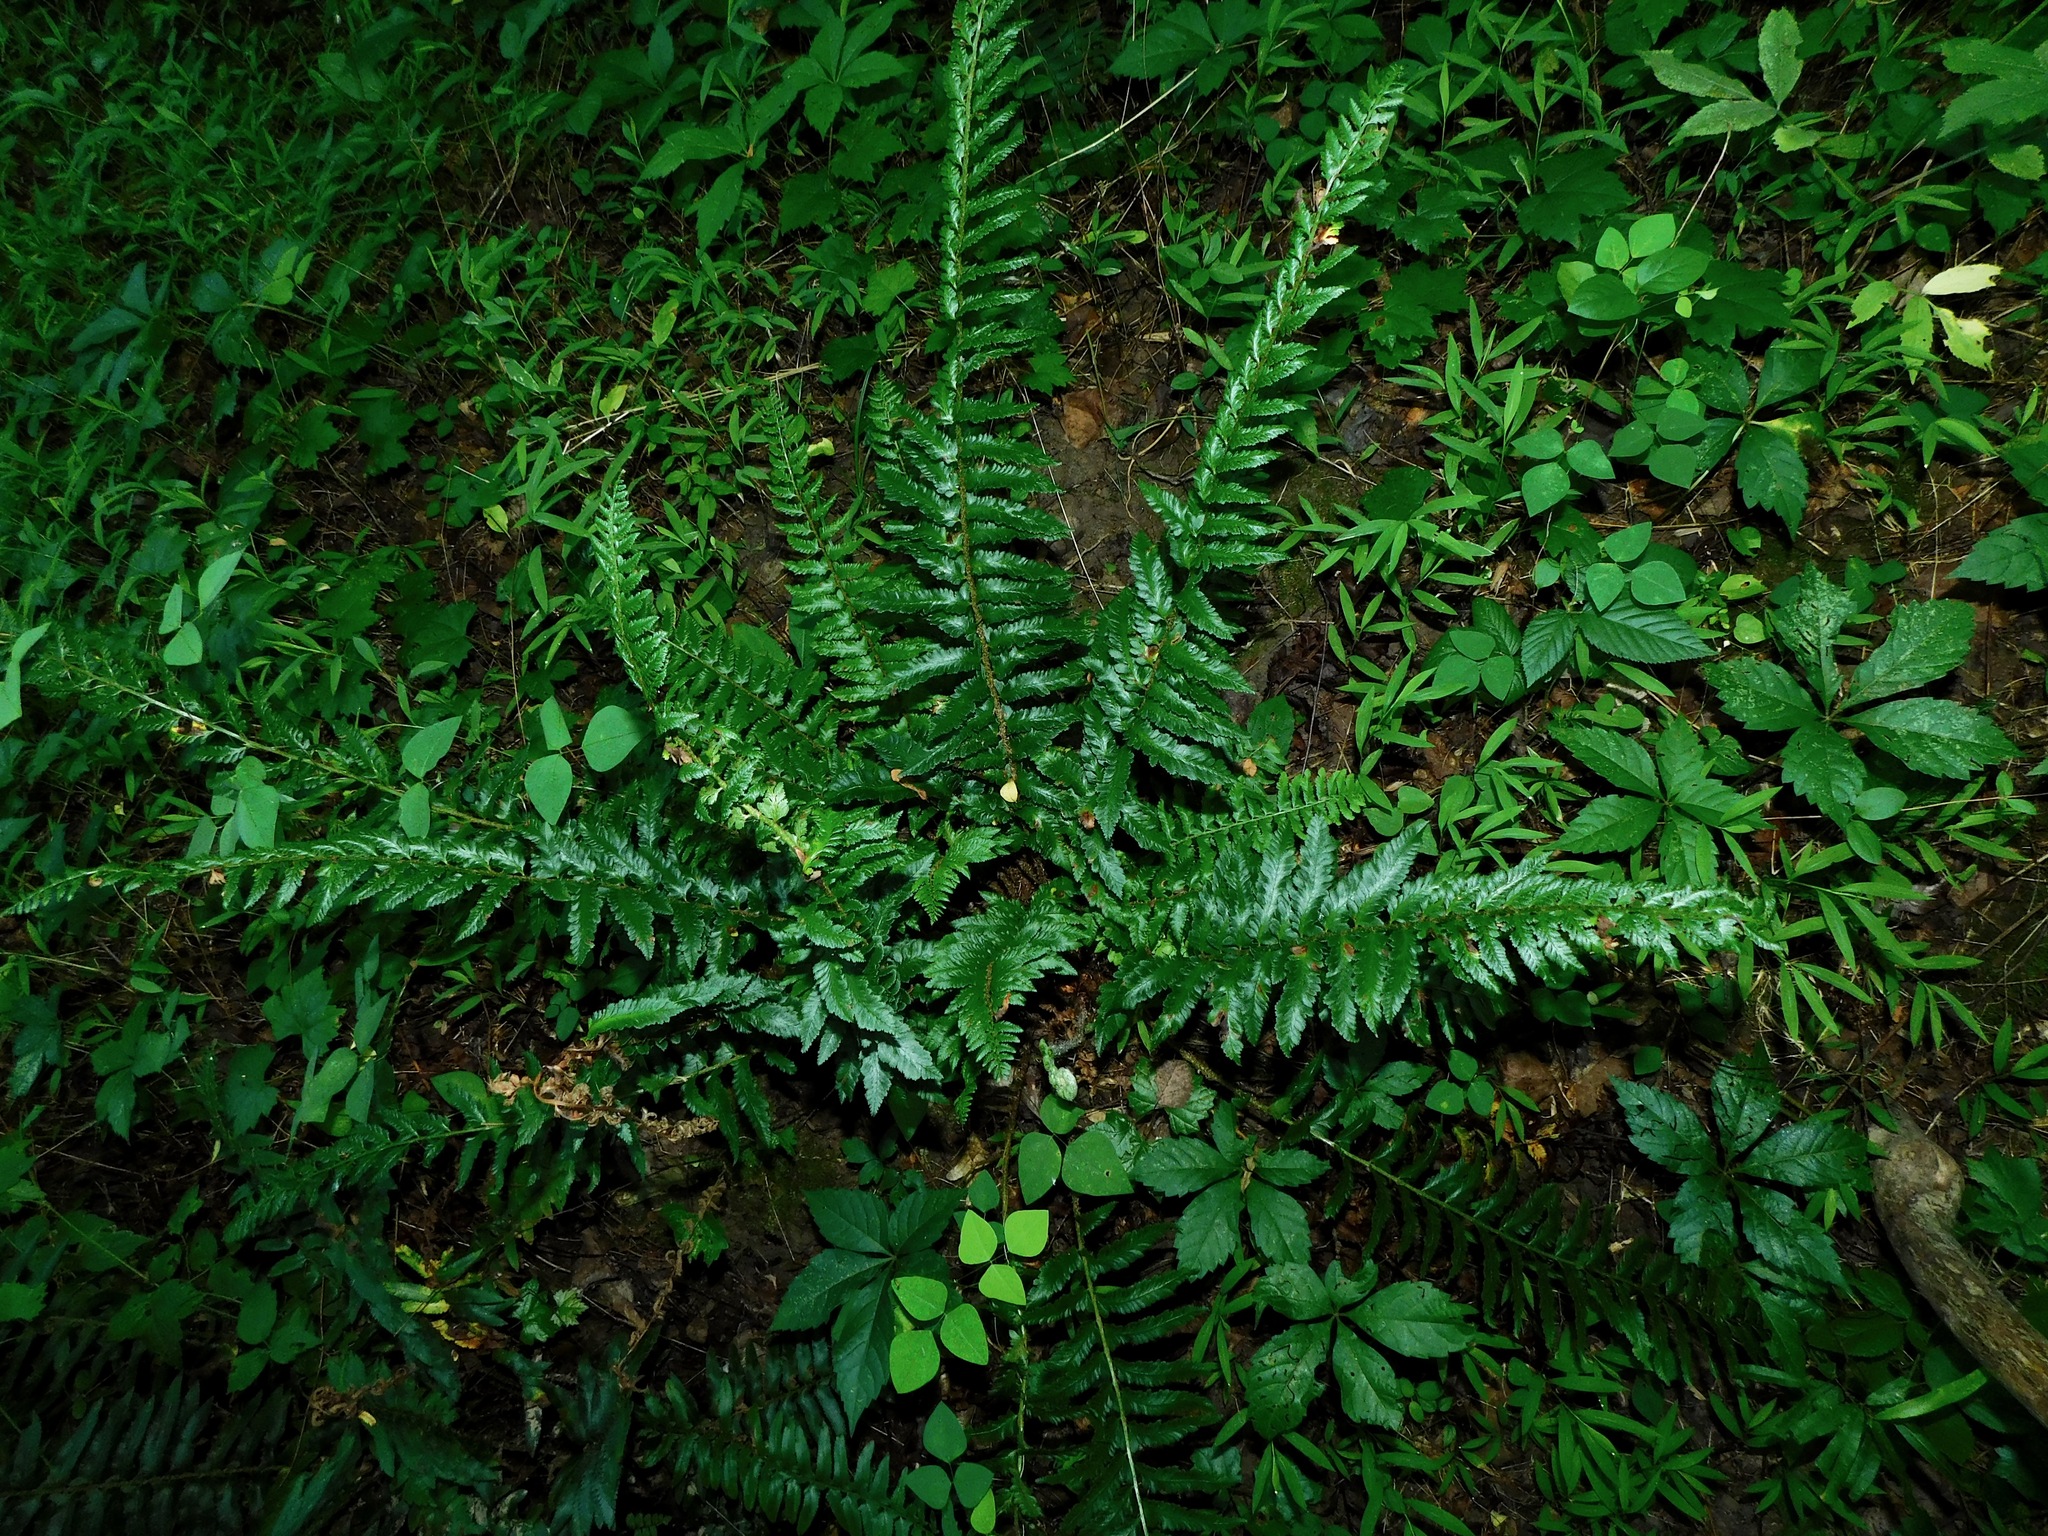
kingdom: Plantae
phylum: Tracheophyta
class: Polypodiopsida
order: Polypodiales
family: Dryopteridaceae
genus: Polystichum
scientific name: Polystichum acrostichoides
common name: Christmas fern
